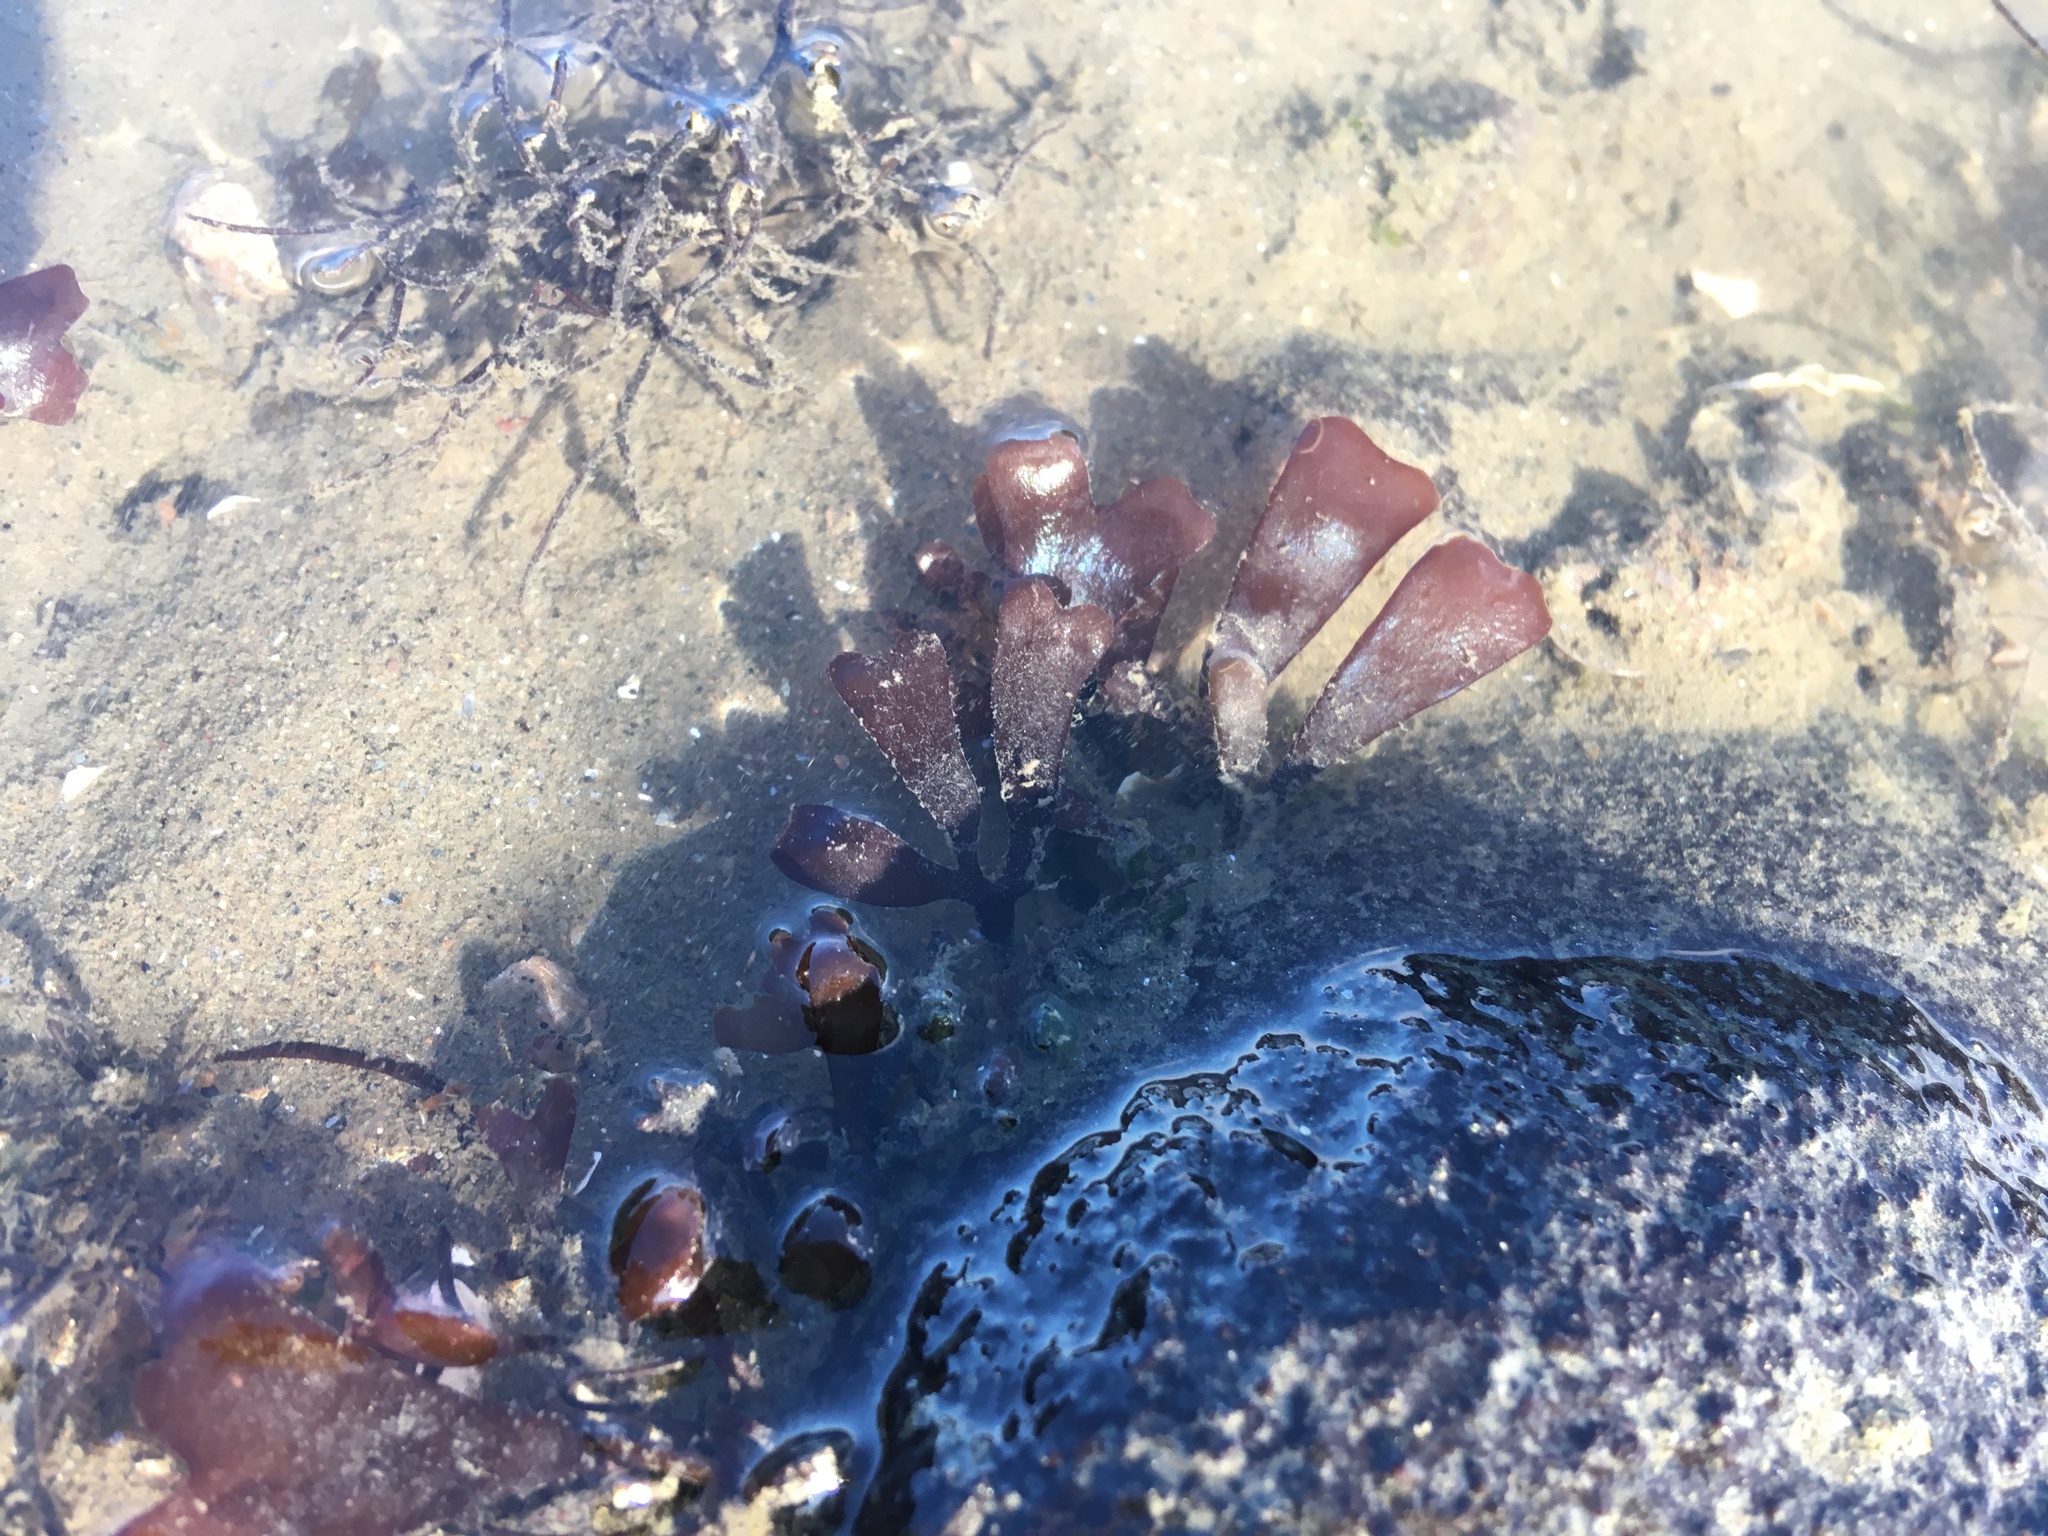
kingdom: Plantae
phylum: Rhodophyta
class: Florideophyceae
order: Gigartinales
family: Gigartinaceae
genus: Chondrus
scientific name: Chondrus crispus
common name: Carrageen
